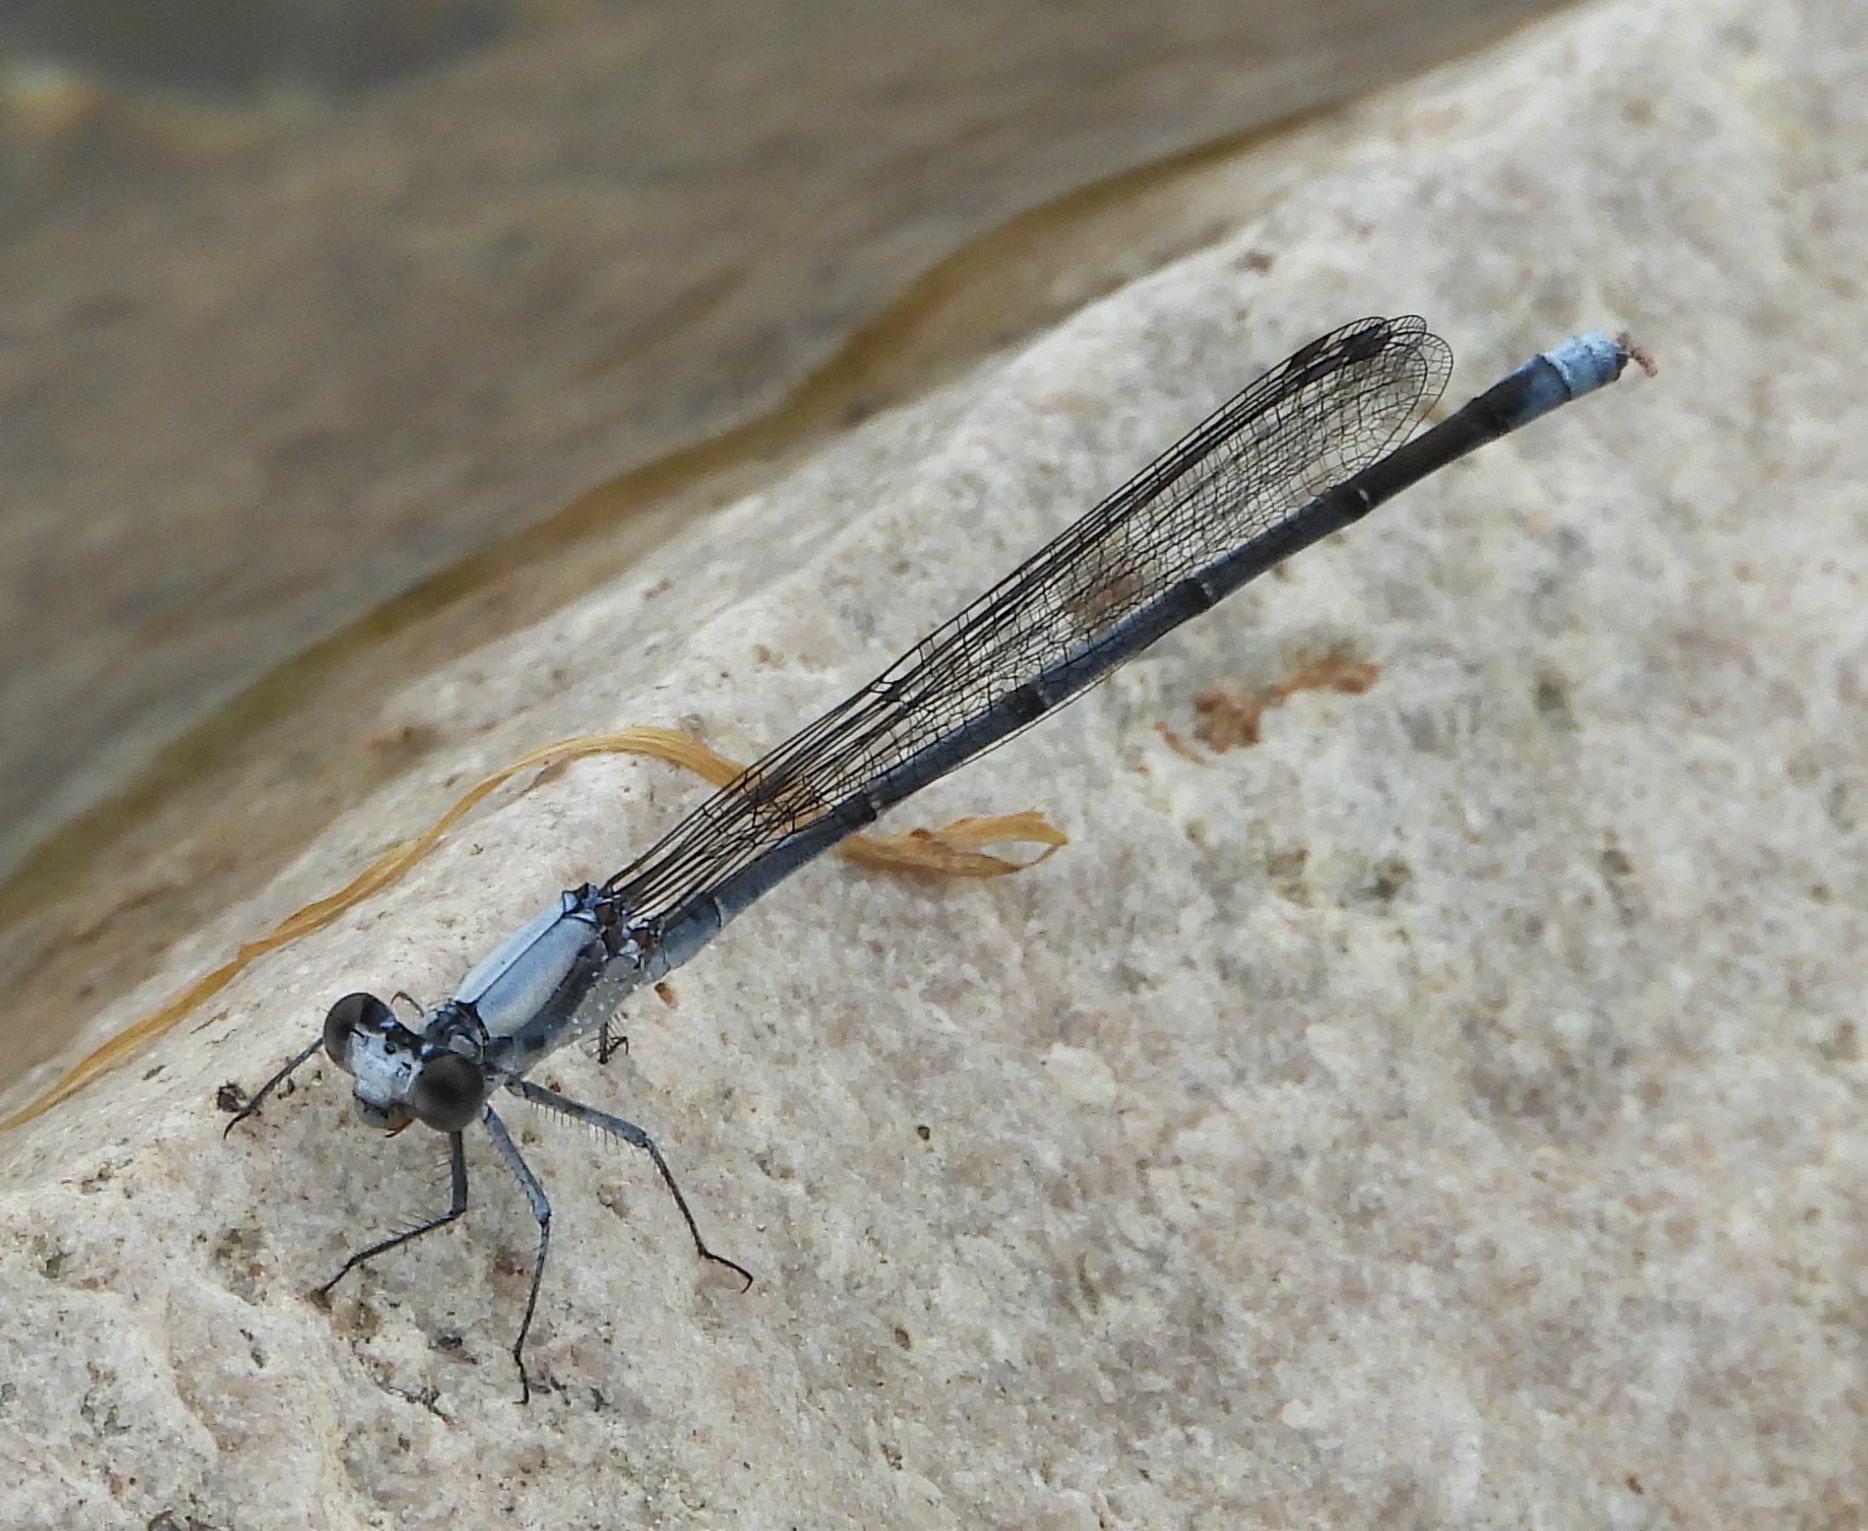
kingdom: Animalia
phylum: Arthropoda
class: Insecta
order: Odonata
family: Coenagrionidae
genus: Argia
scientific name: Argia moesta
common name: Powdered dancer
